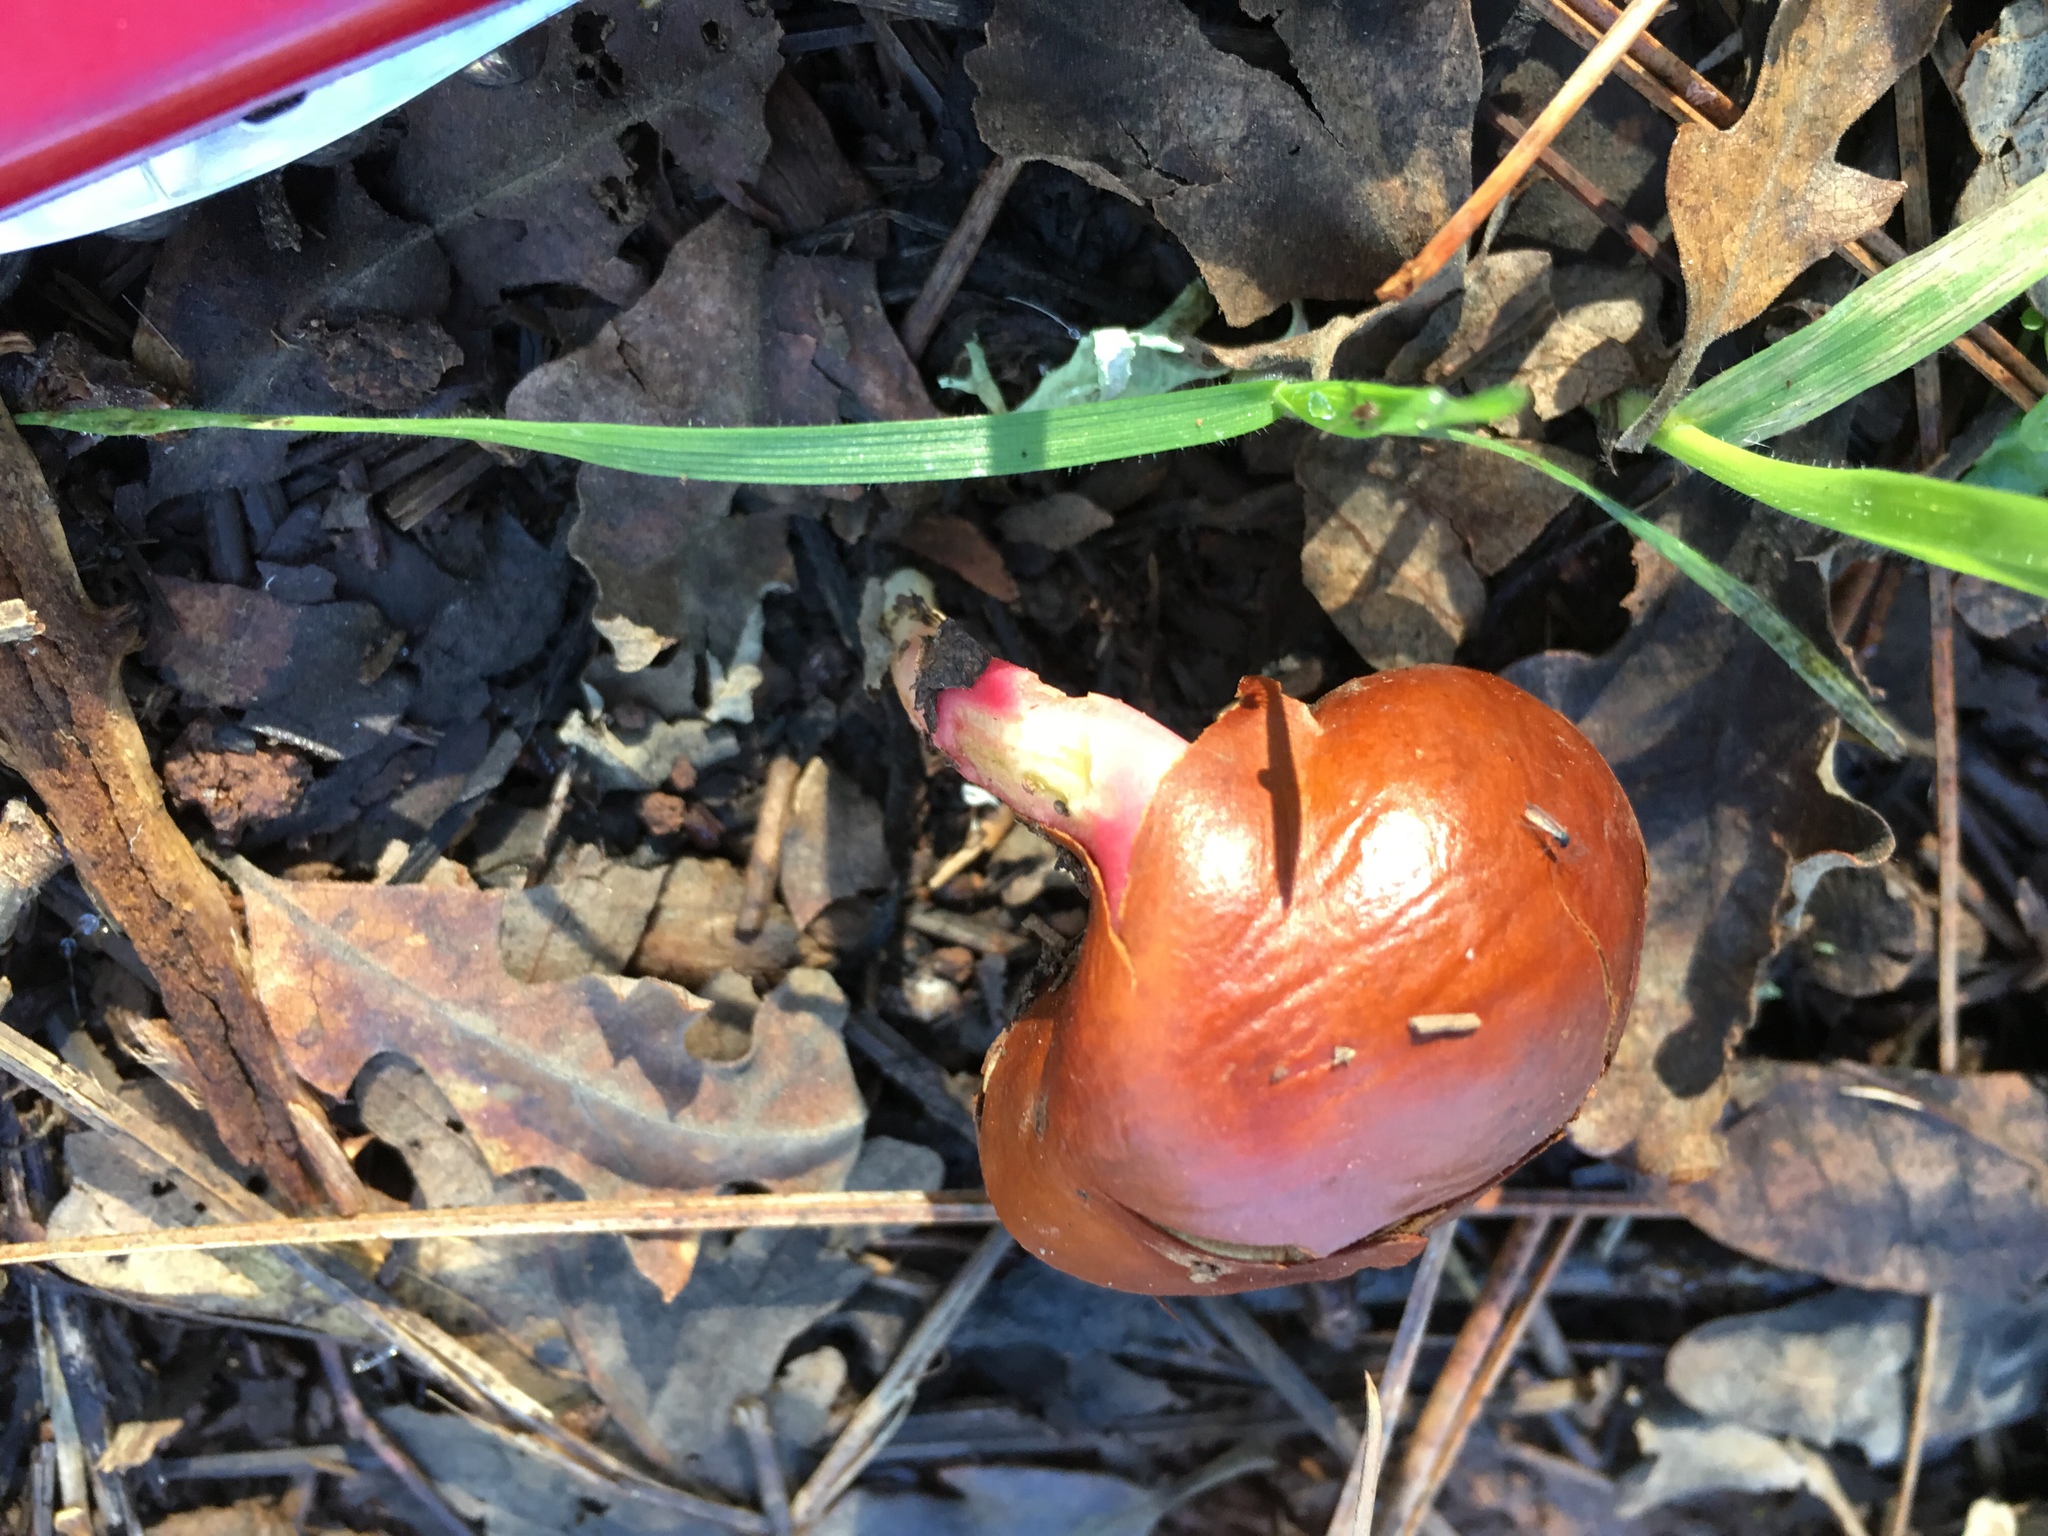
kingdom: Plantae
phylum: Tracheophyta
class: Magnoliopsida
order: Sapindales
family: Sapindaceae
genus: Aesculus
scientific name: Aesculus californica
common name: California buckeye
